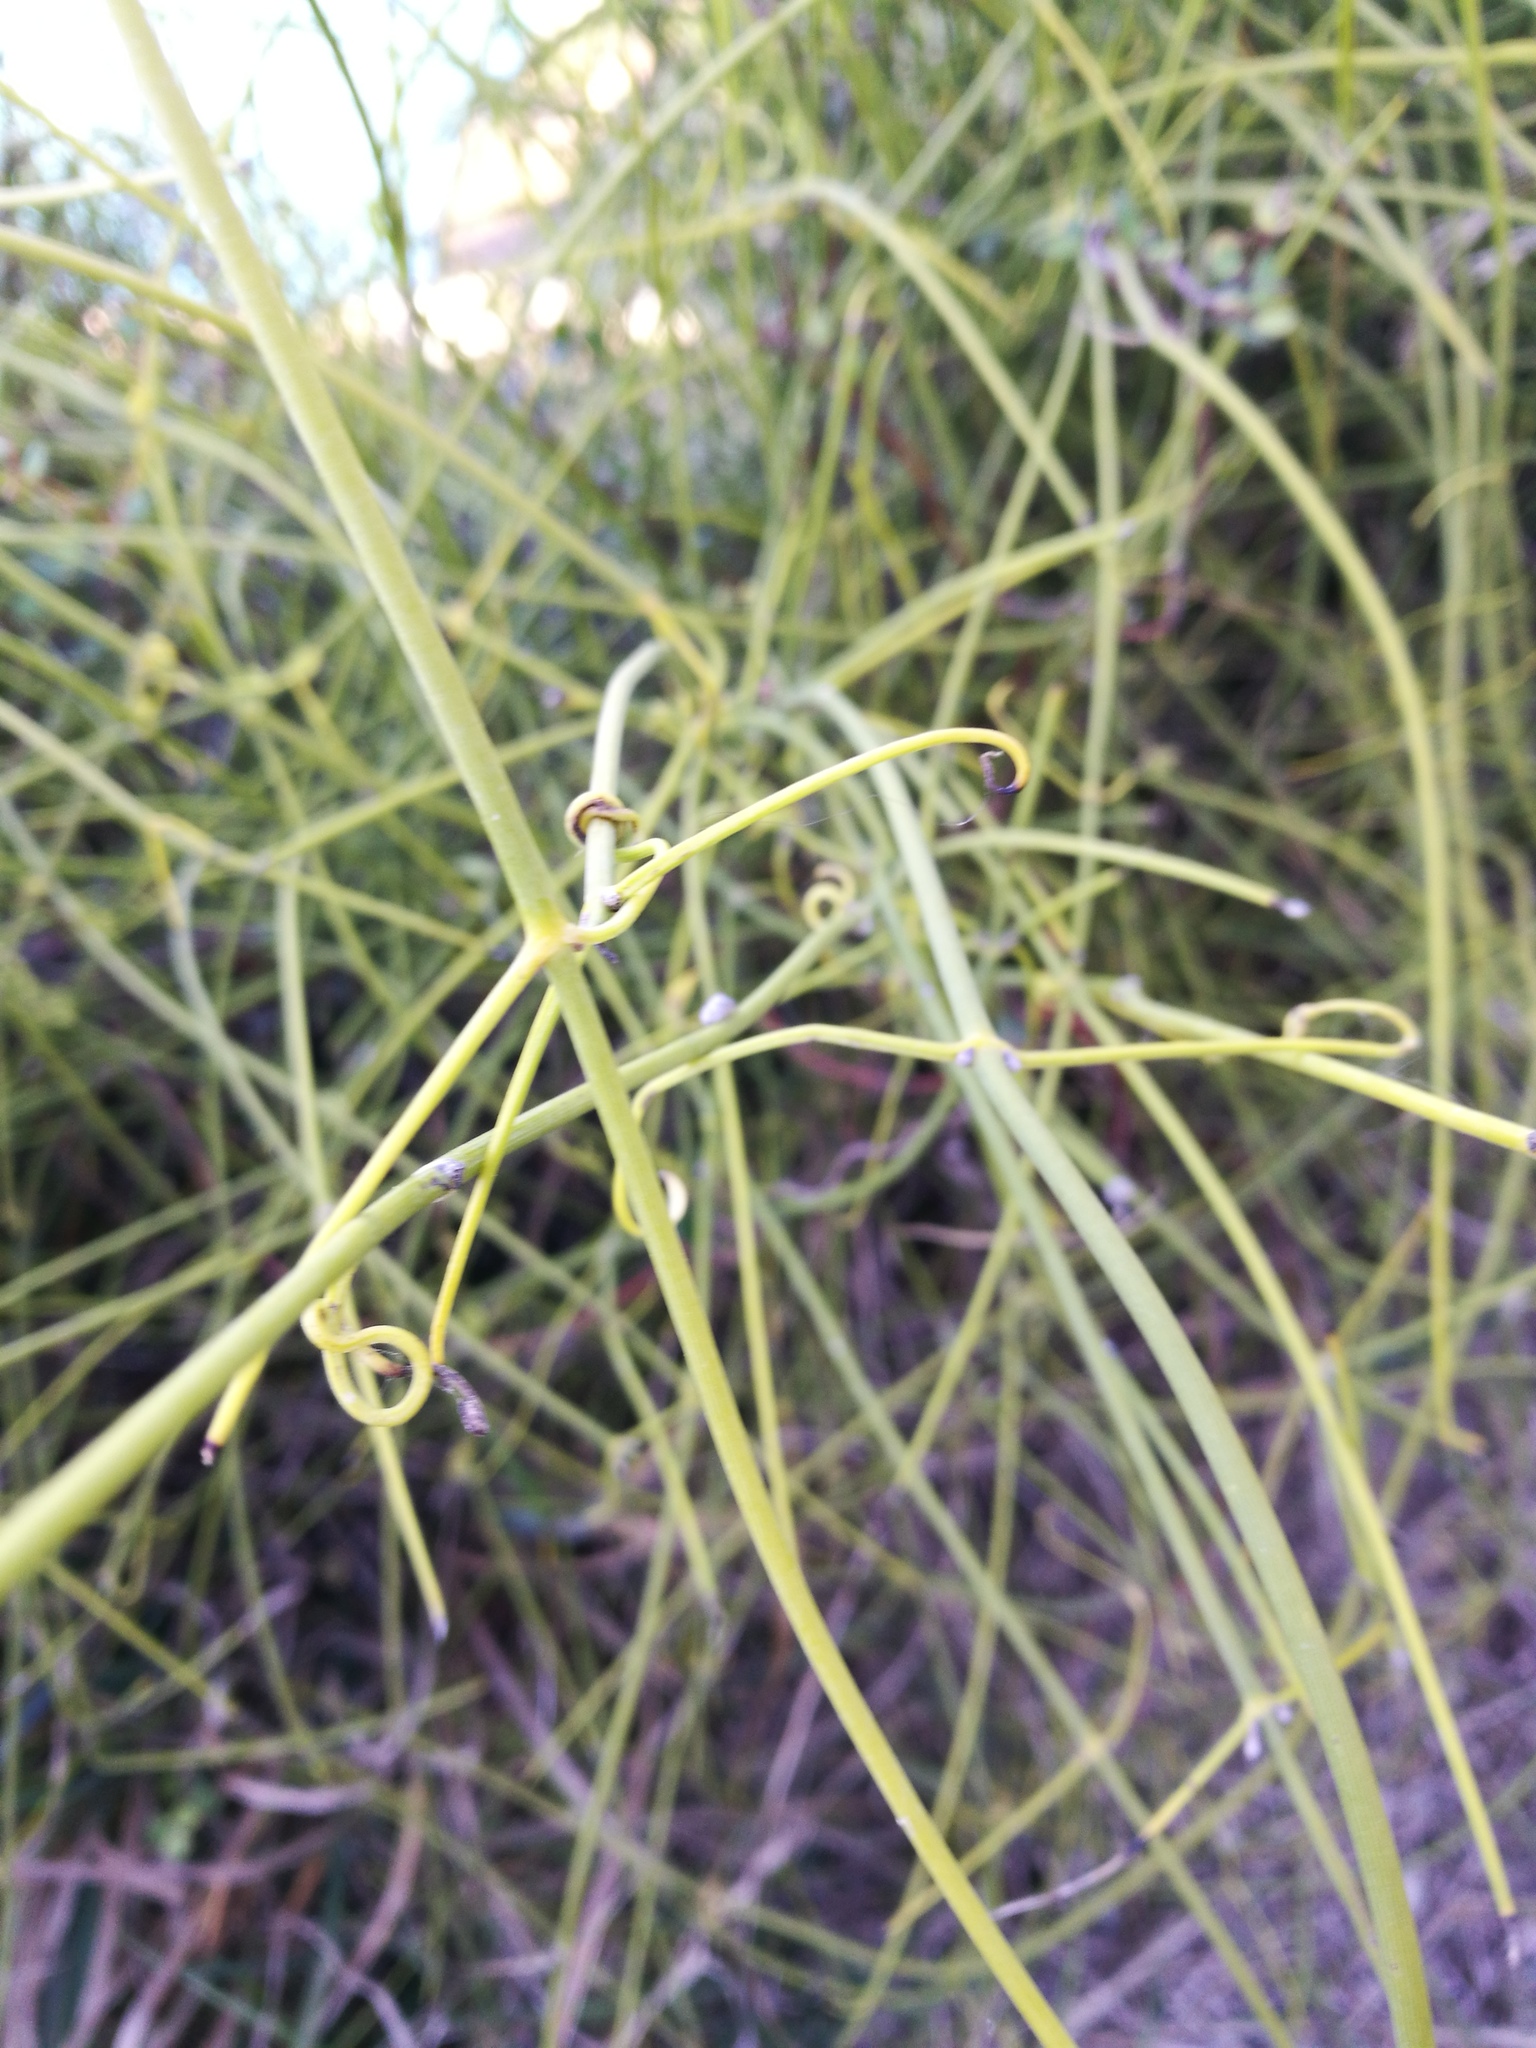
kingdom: Plantae
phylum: Tracheophyta
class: Magnoliopsida
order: Ranunculales
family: Ranunculaceae
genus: Clematis
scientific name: Clematis afoliata
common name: Rush-stem clematis
